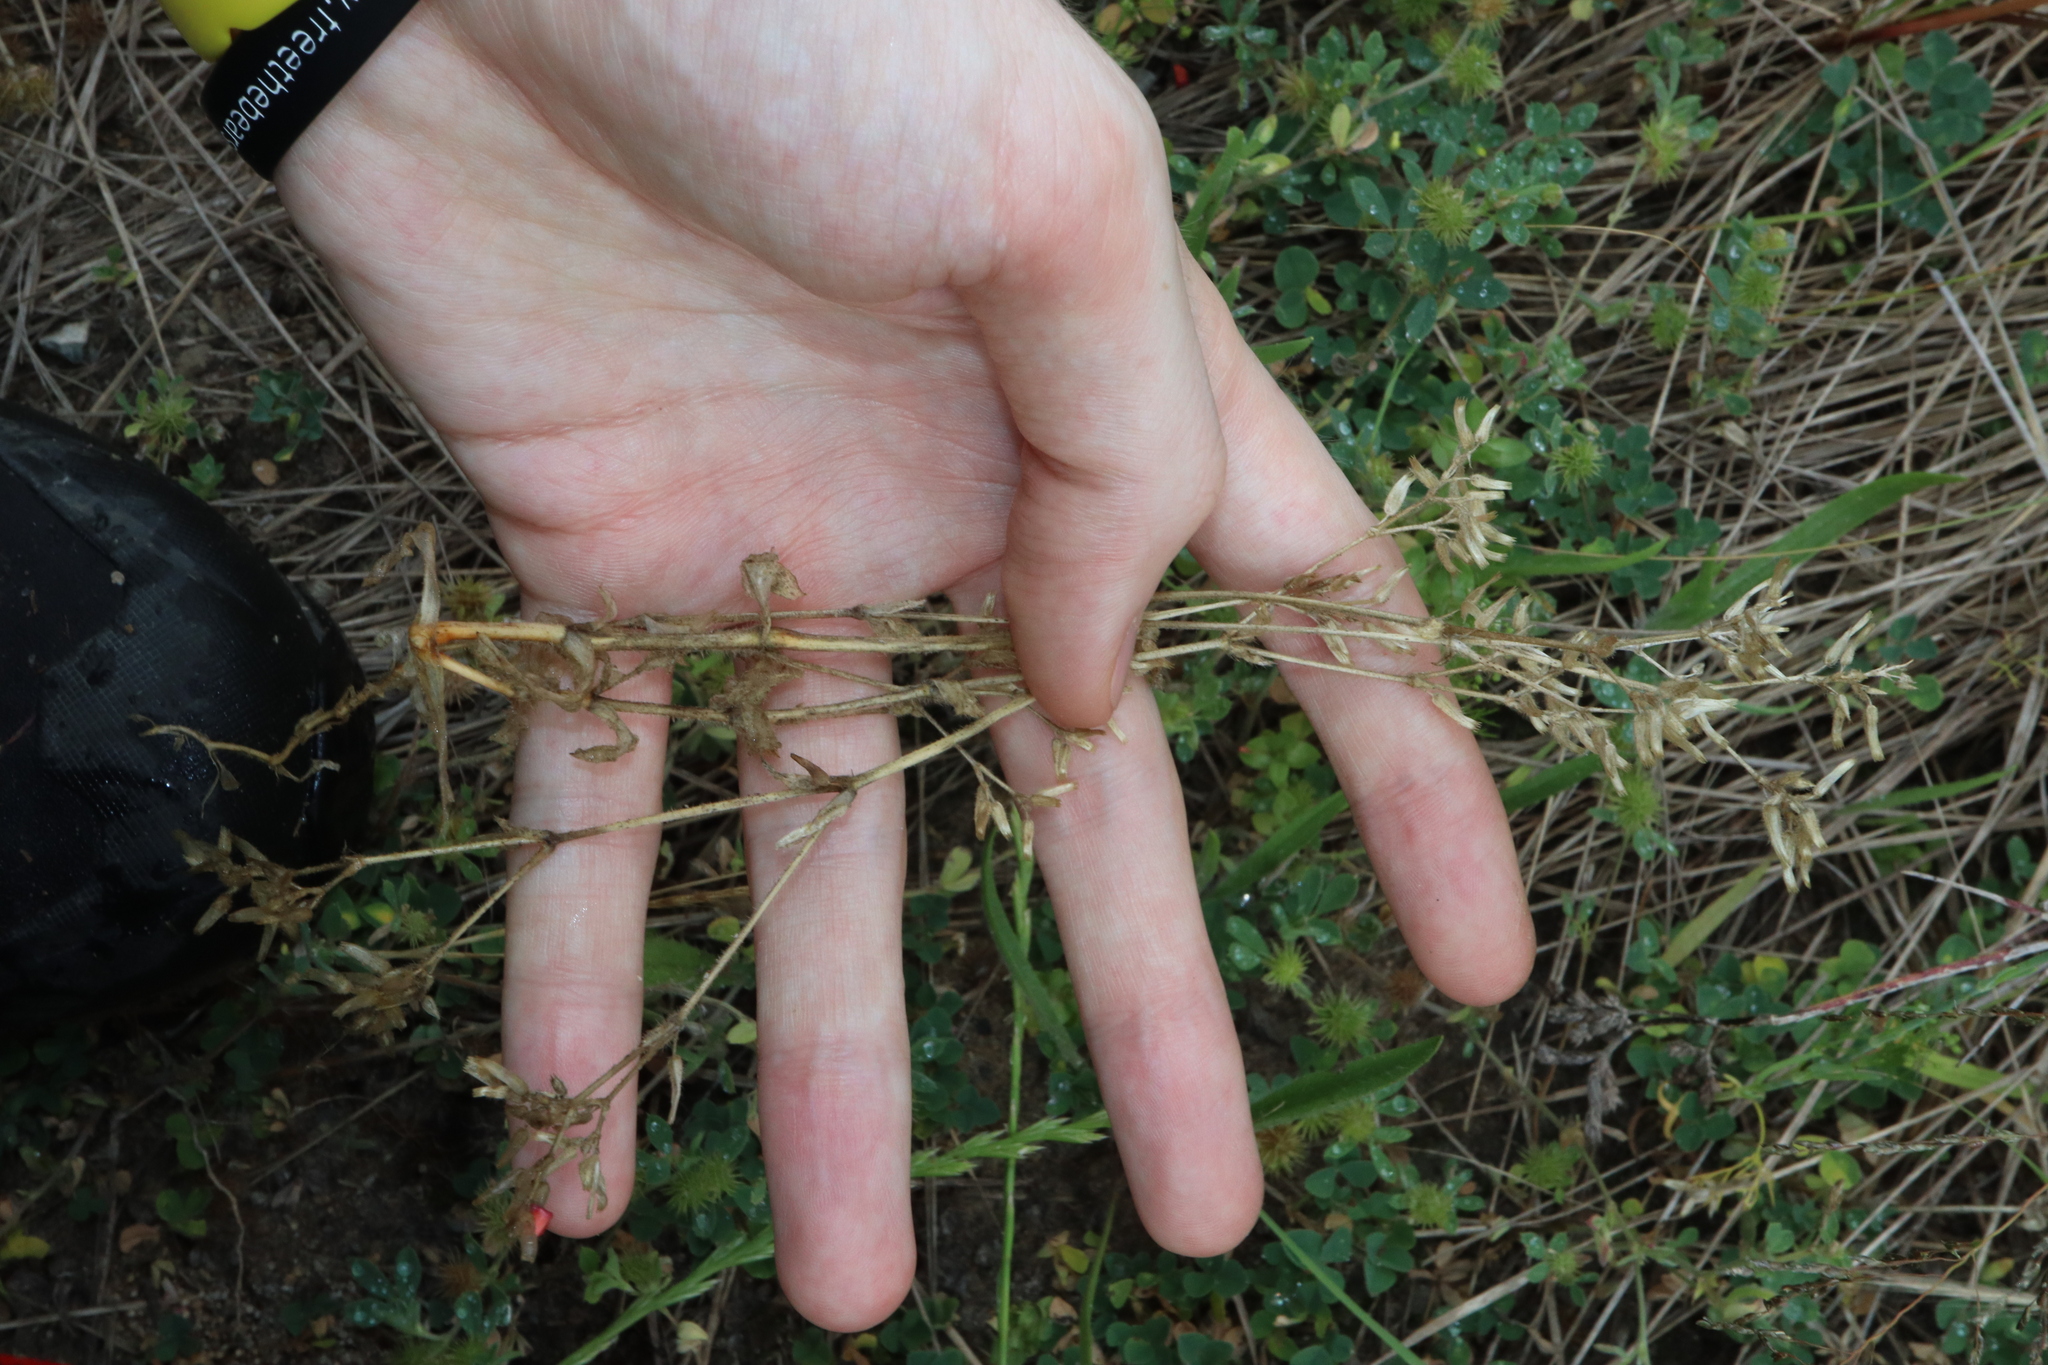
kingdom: Plantae
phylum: Tracheophyta
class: Magnoliopsida
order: Caryophyllales
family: Caryophyllaceae
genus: Cerastium
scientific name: Cerastium glomeratum
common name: Sticky chickweed
